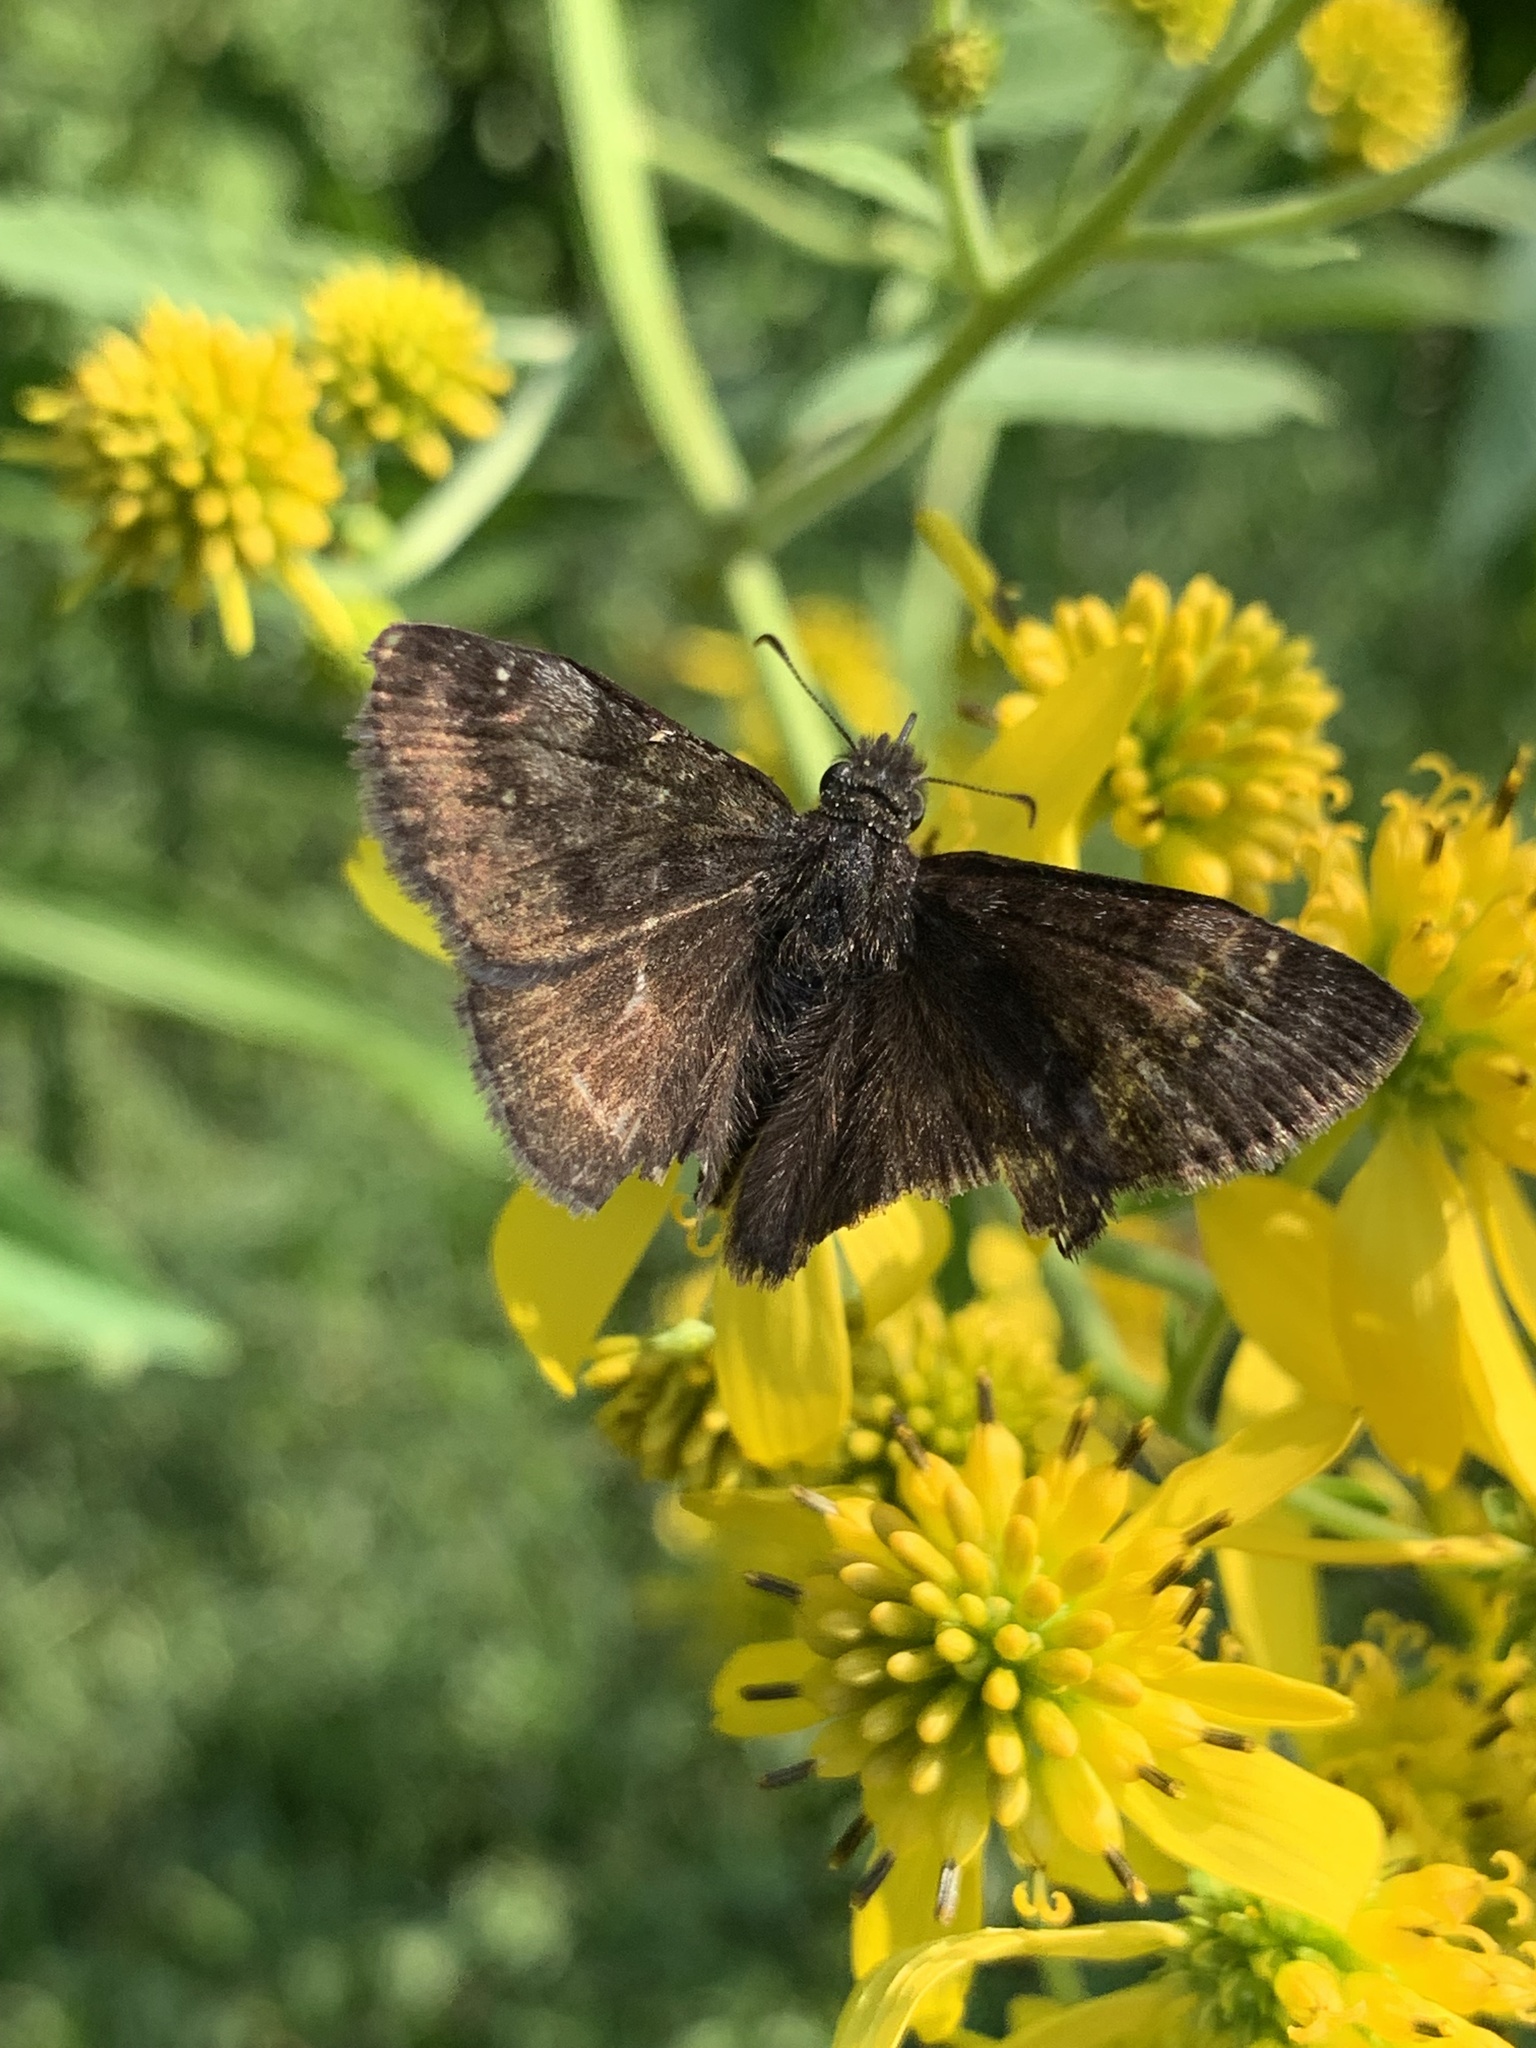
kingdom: Animalia
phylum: Arthropoda
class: Insecta
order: Lepidoptera
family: Hesperiidae
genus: Erynnis
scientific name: Erynnis baptisiae
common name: Wild indigo duskywing
